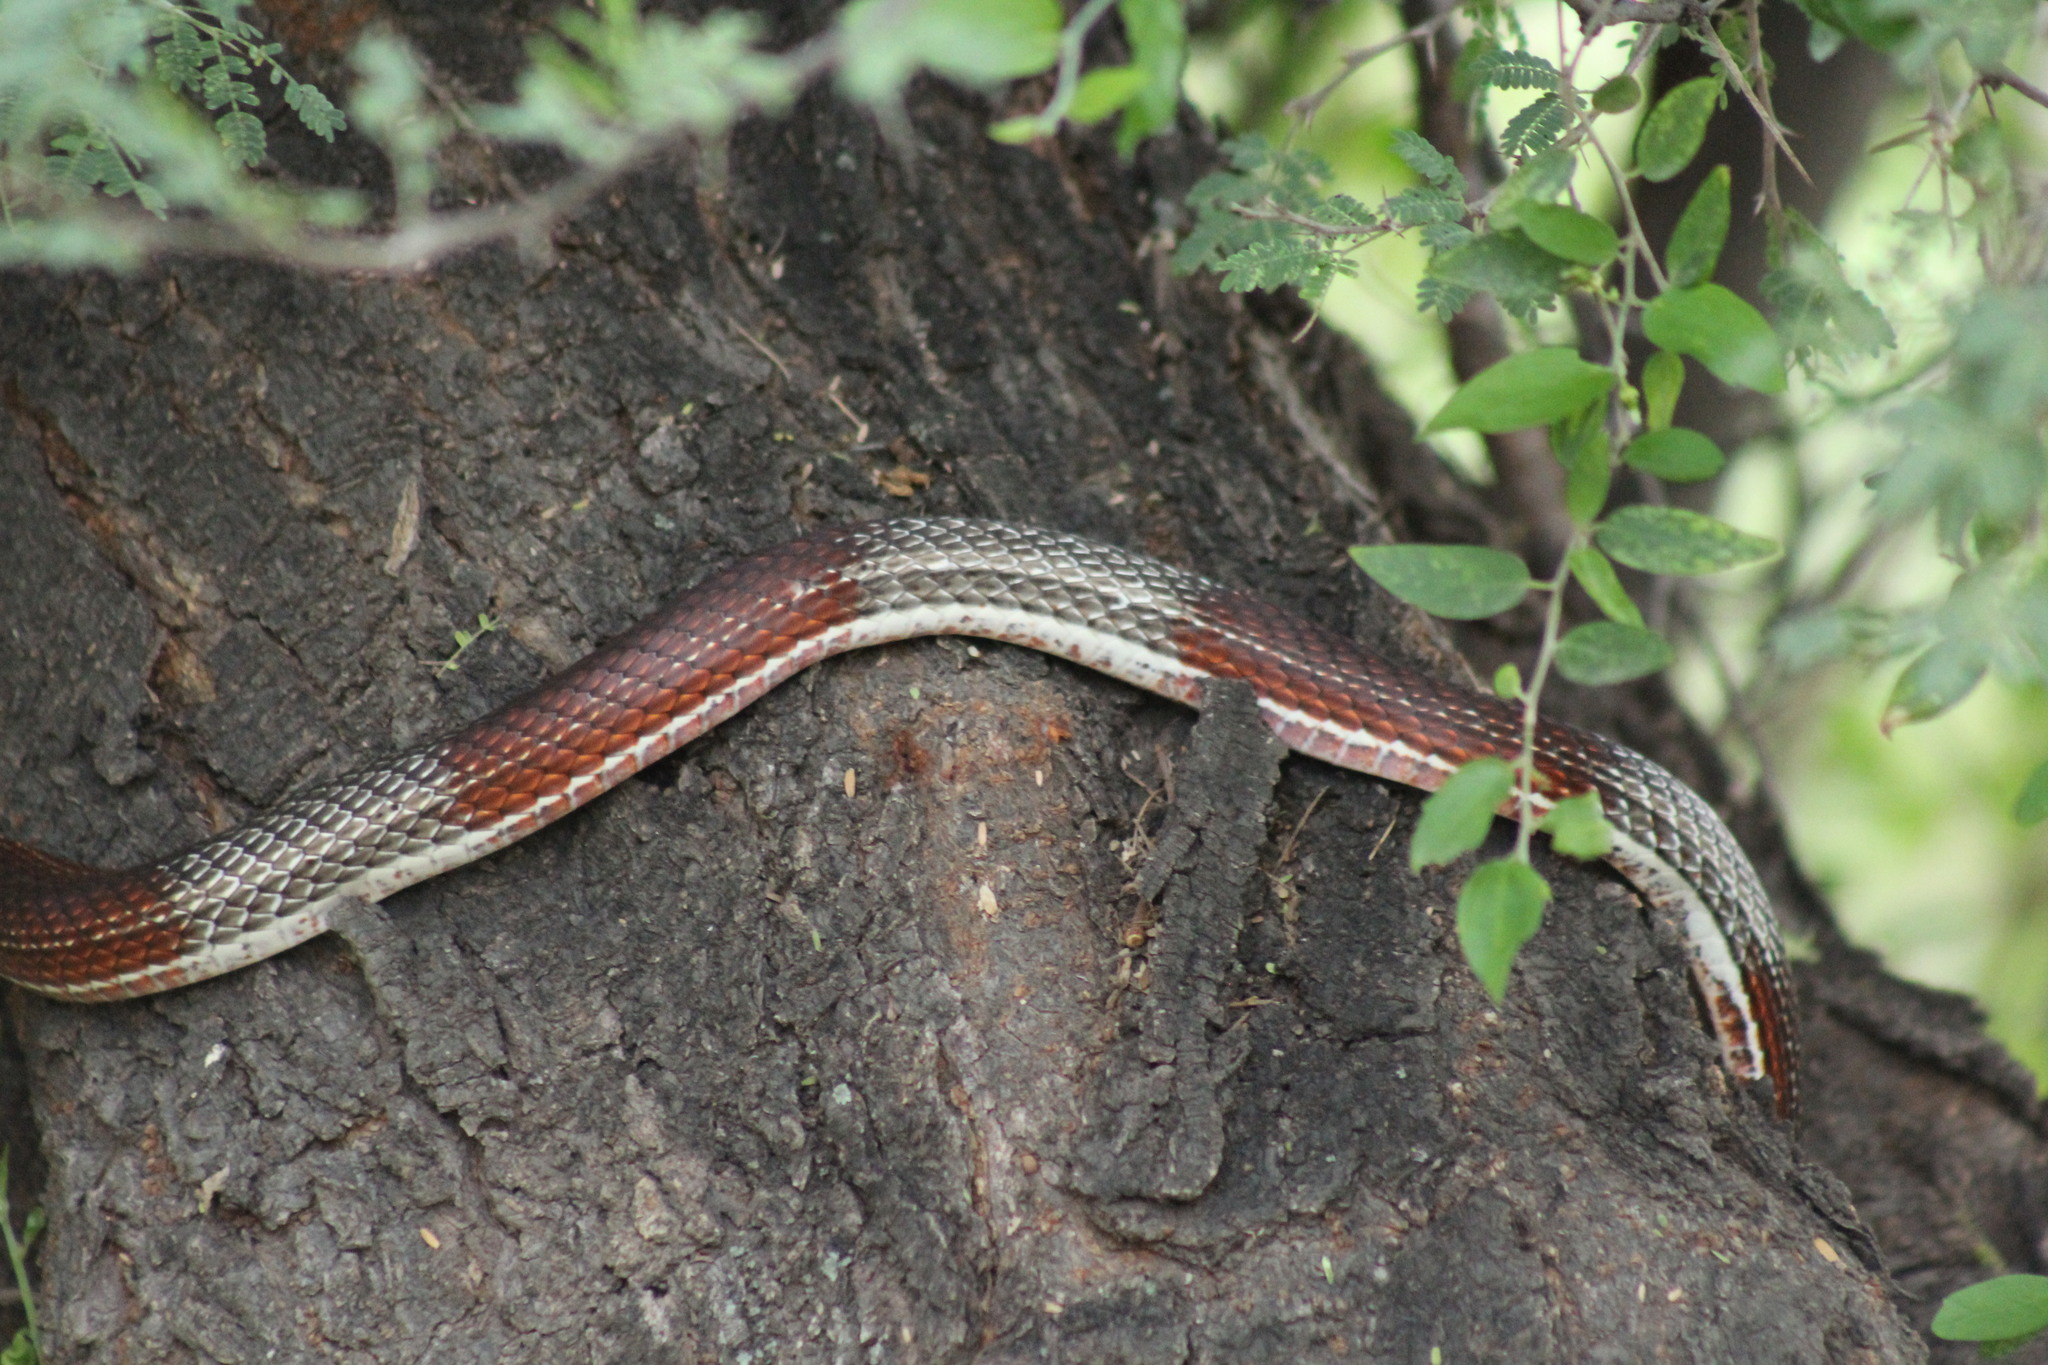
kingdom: Animalia
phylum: Chordata
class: Squamata
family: Colubridae
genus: Masticophis
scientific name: Masticophis taeniatus
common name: Striped whipsnake
